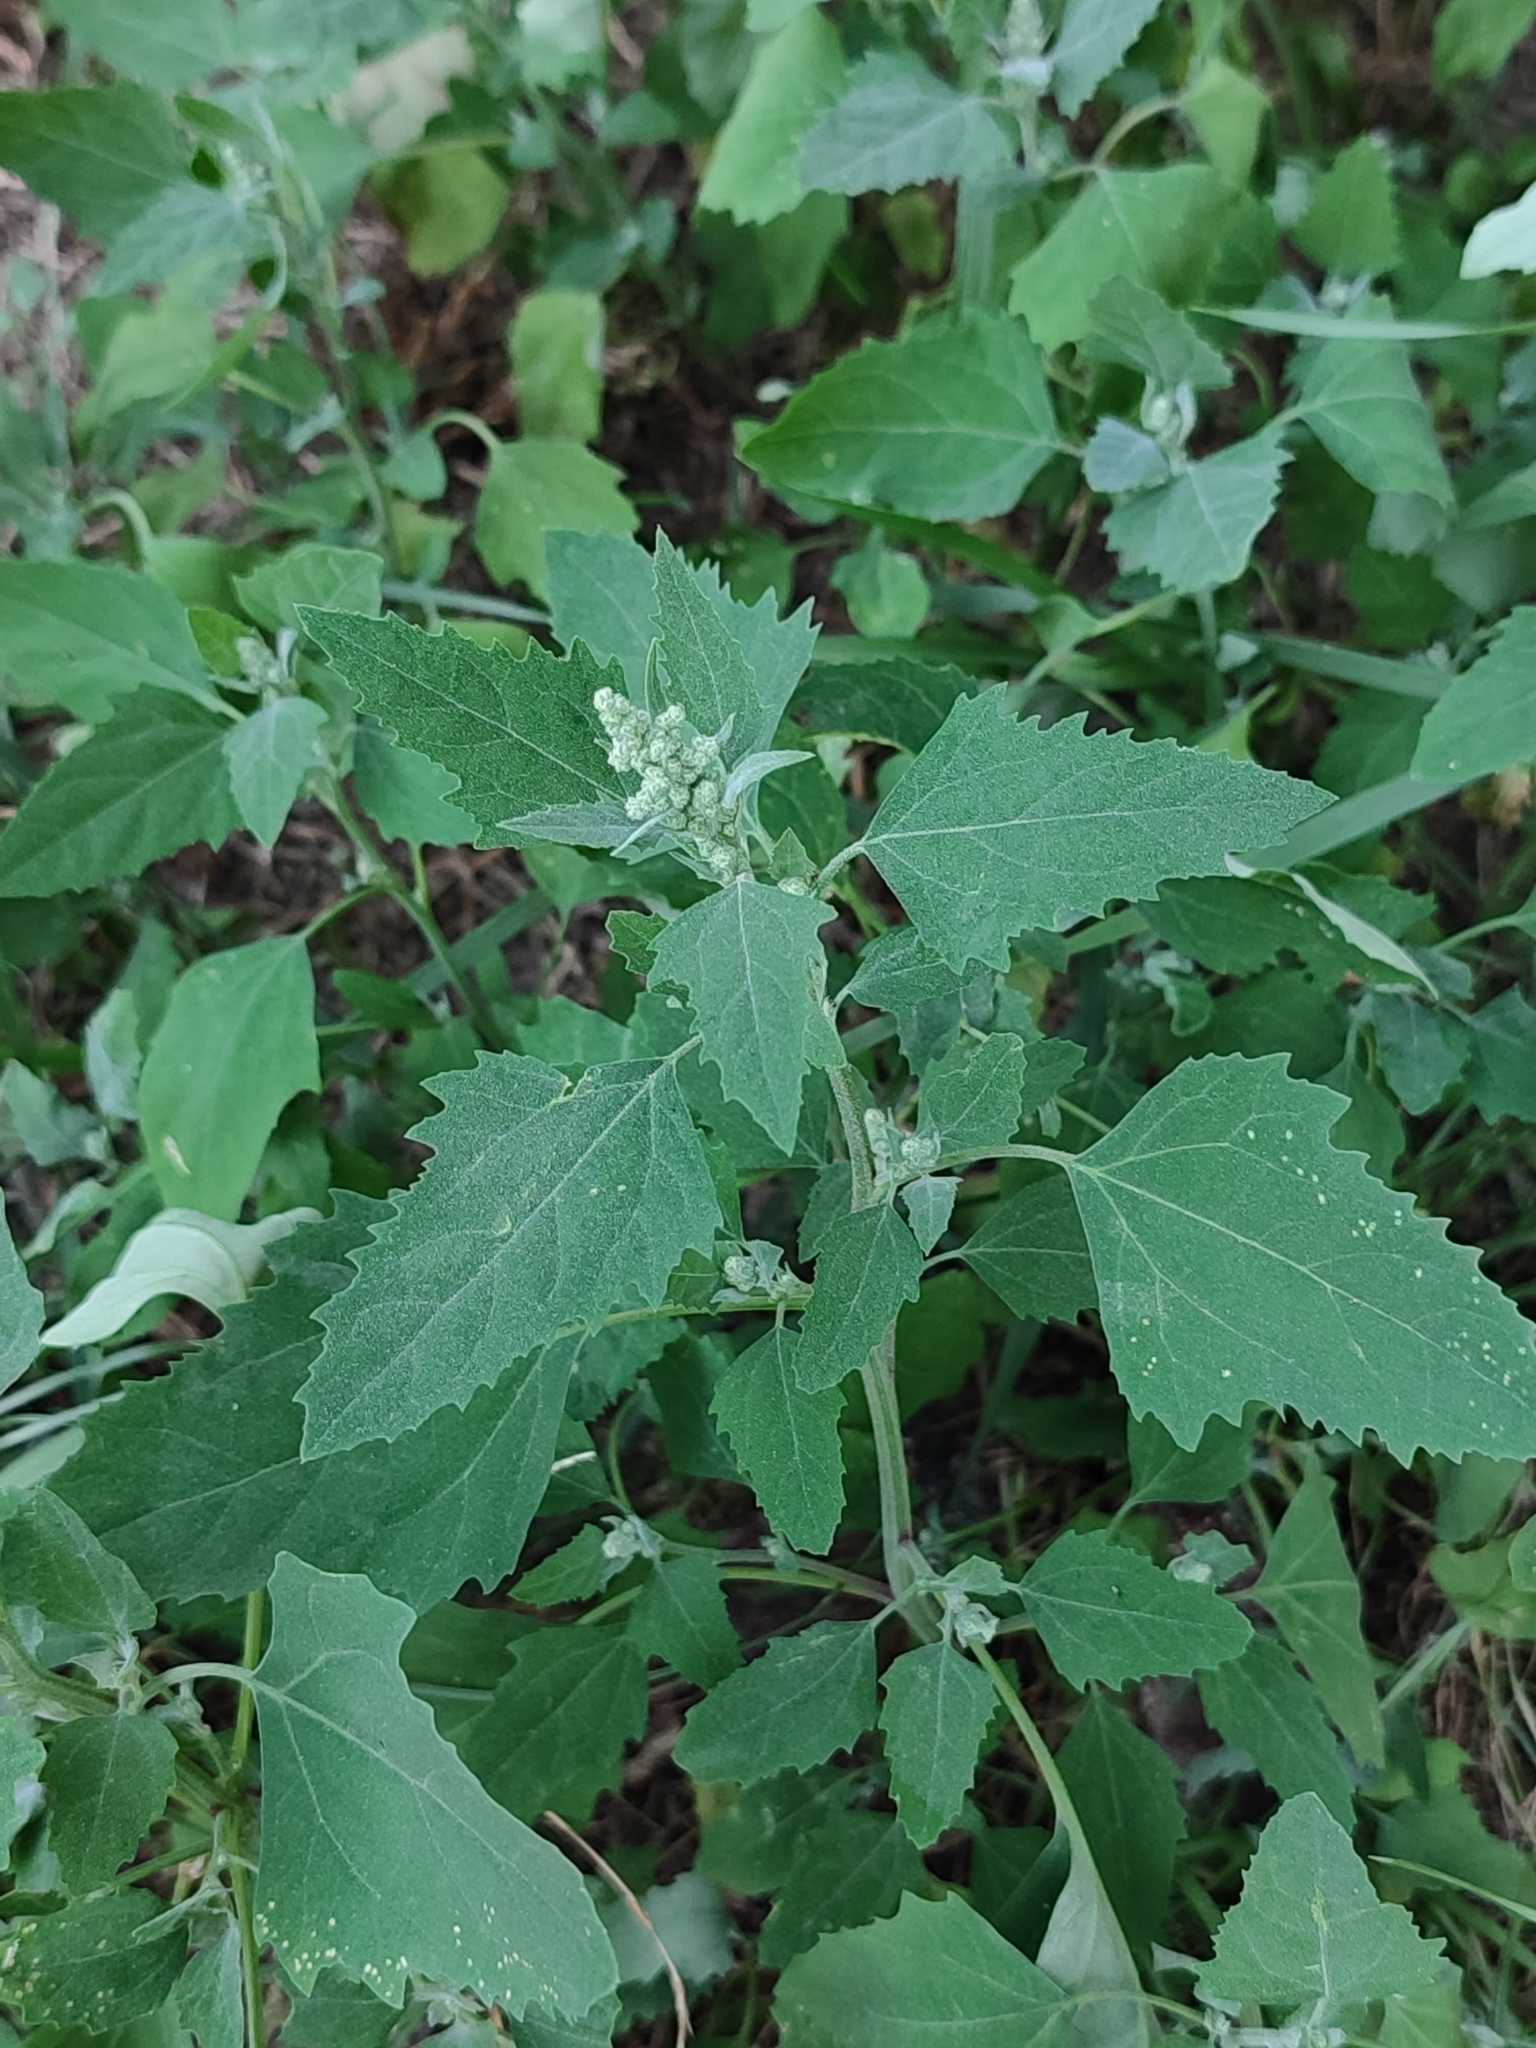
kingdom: Plantae
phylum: Tracheophyta
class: Magnoliopsida
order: Caryophyllales
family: Amaranthaceae
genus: Chenopodium
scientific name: Chenopodium album
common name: Fat-hen
